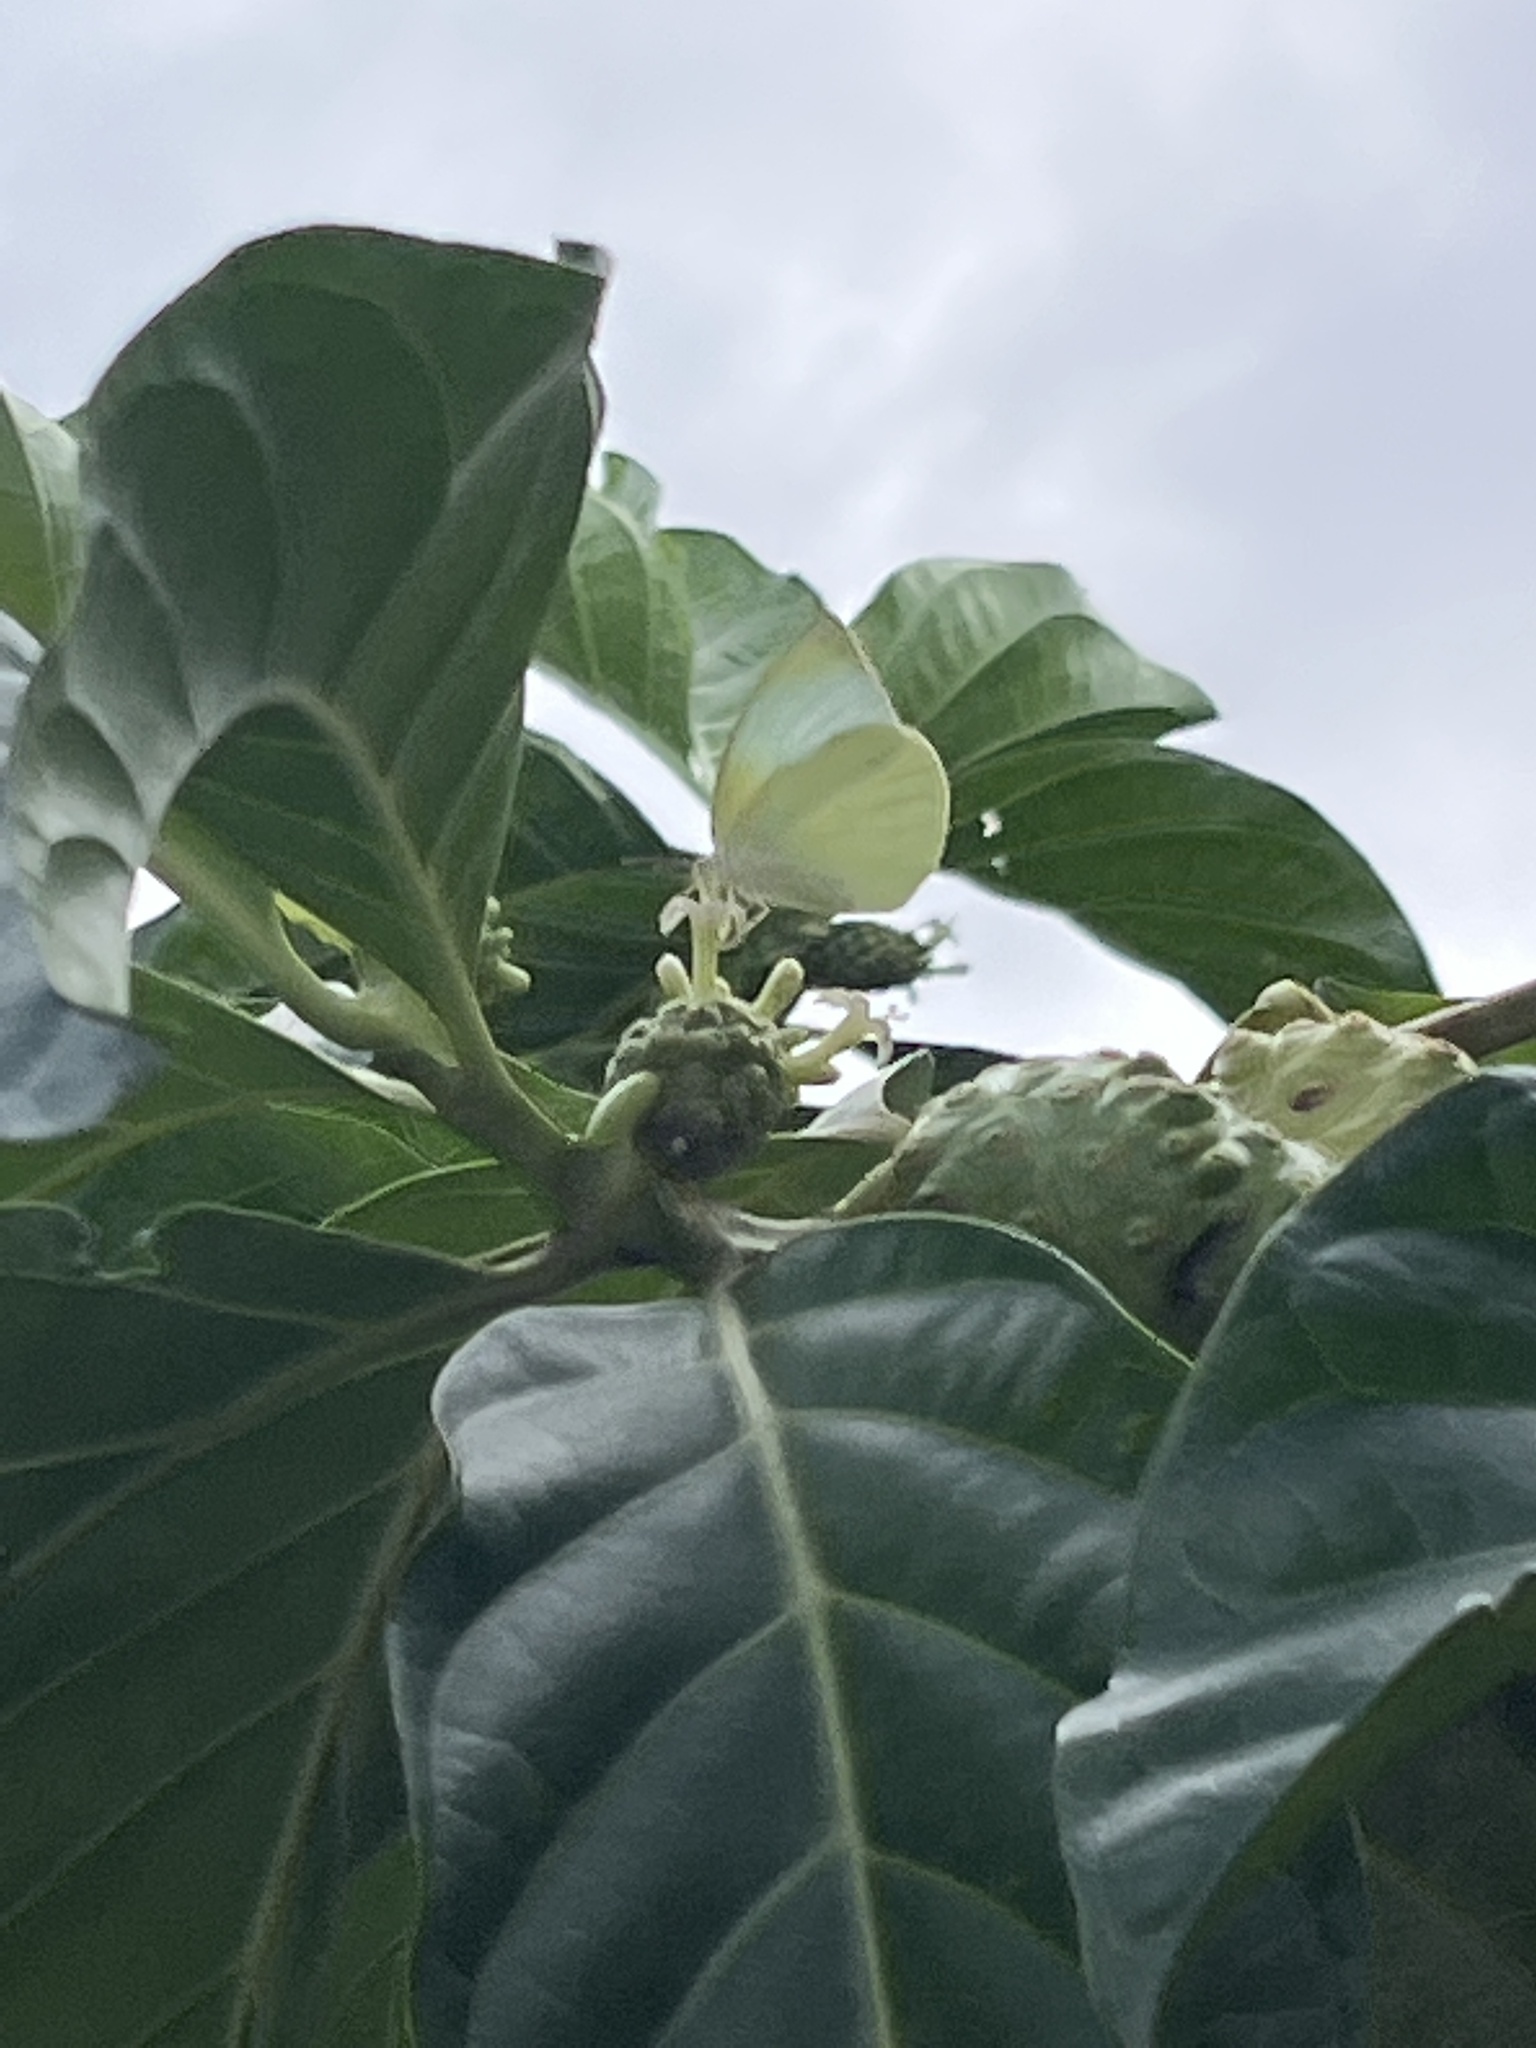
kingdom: Animalia
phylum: Arthropoda
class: Insecta
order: Lepidoptera
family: Pieridae
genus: Kricogonia
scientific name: Kricogonia lyside
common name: Guayacan sulphur,
